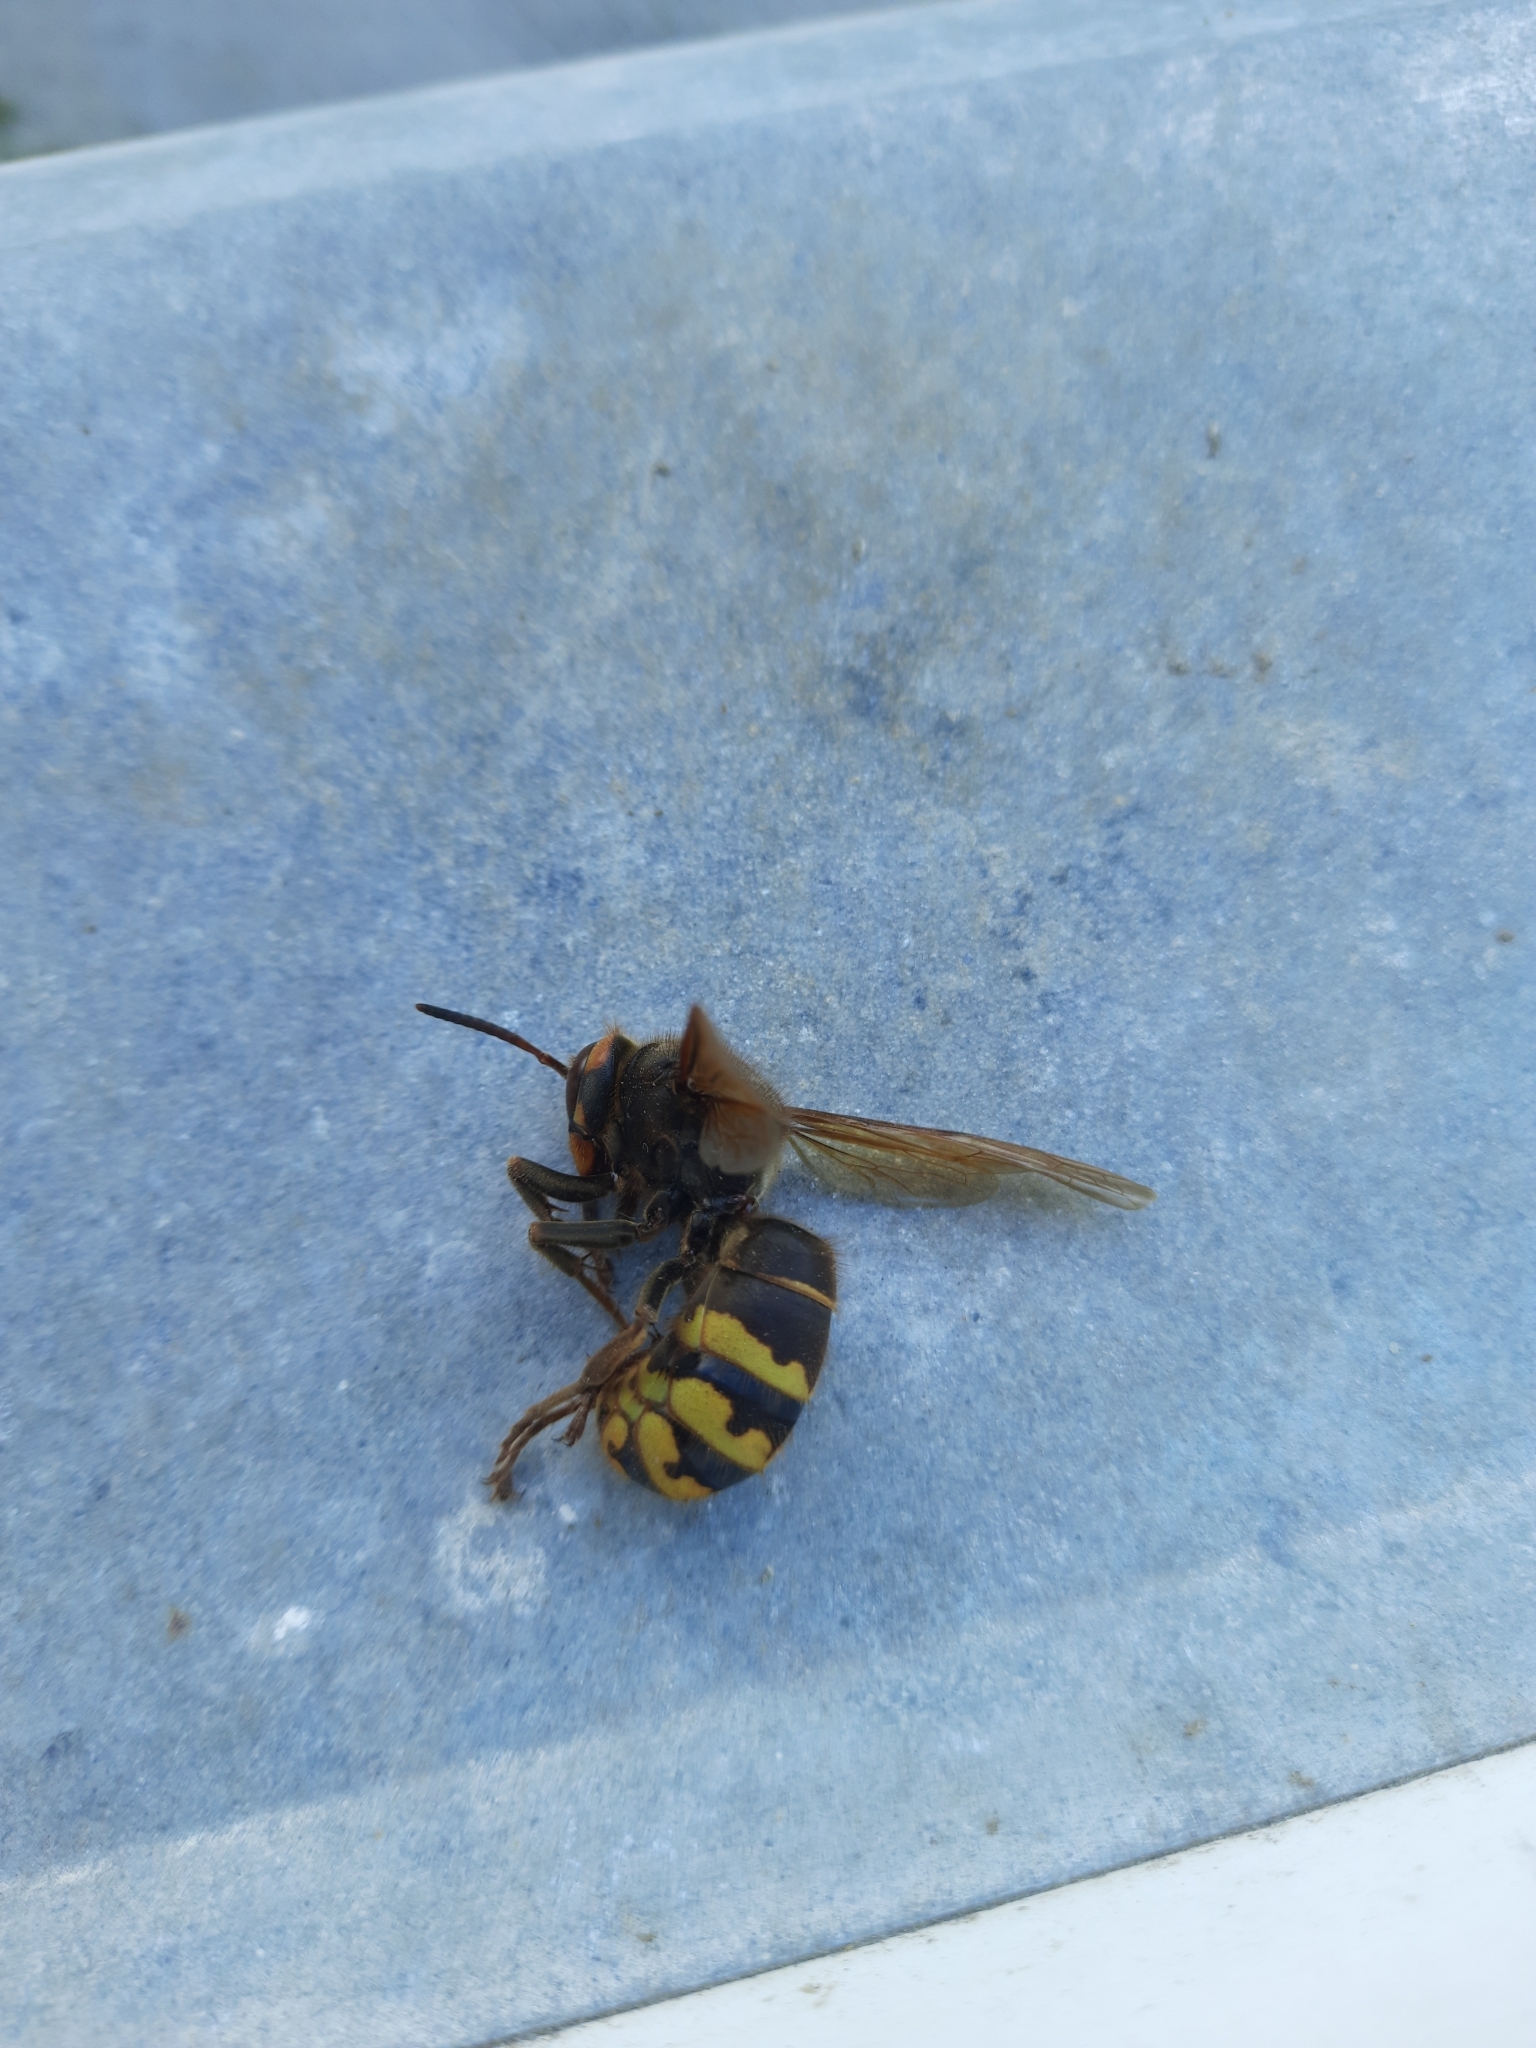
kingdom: Animalia
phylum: Arthropoda
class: Insecta
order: Hymenoptera
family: Vespidae
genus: Vespa
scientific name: Vespa crabro
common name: Hornet
